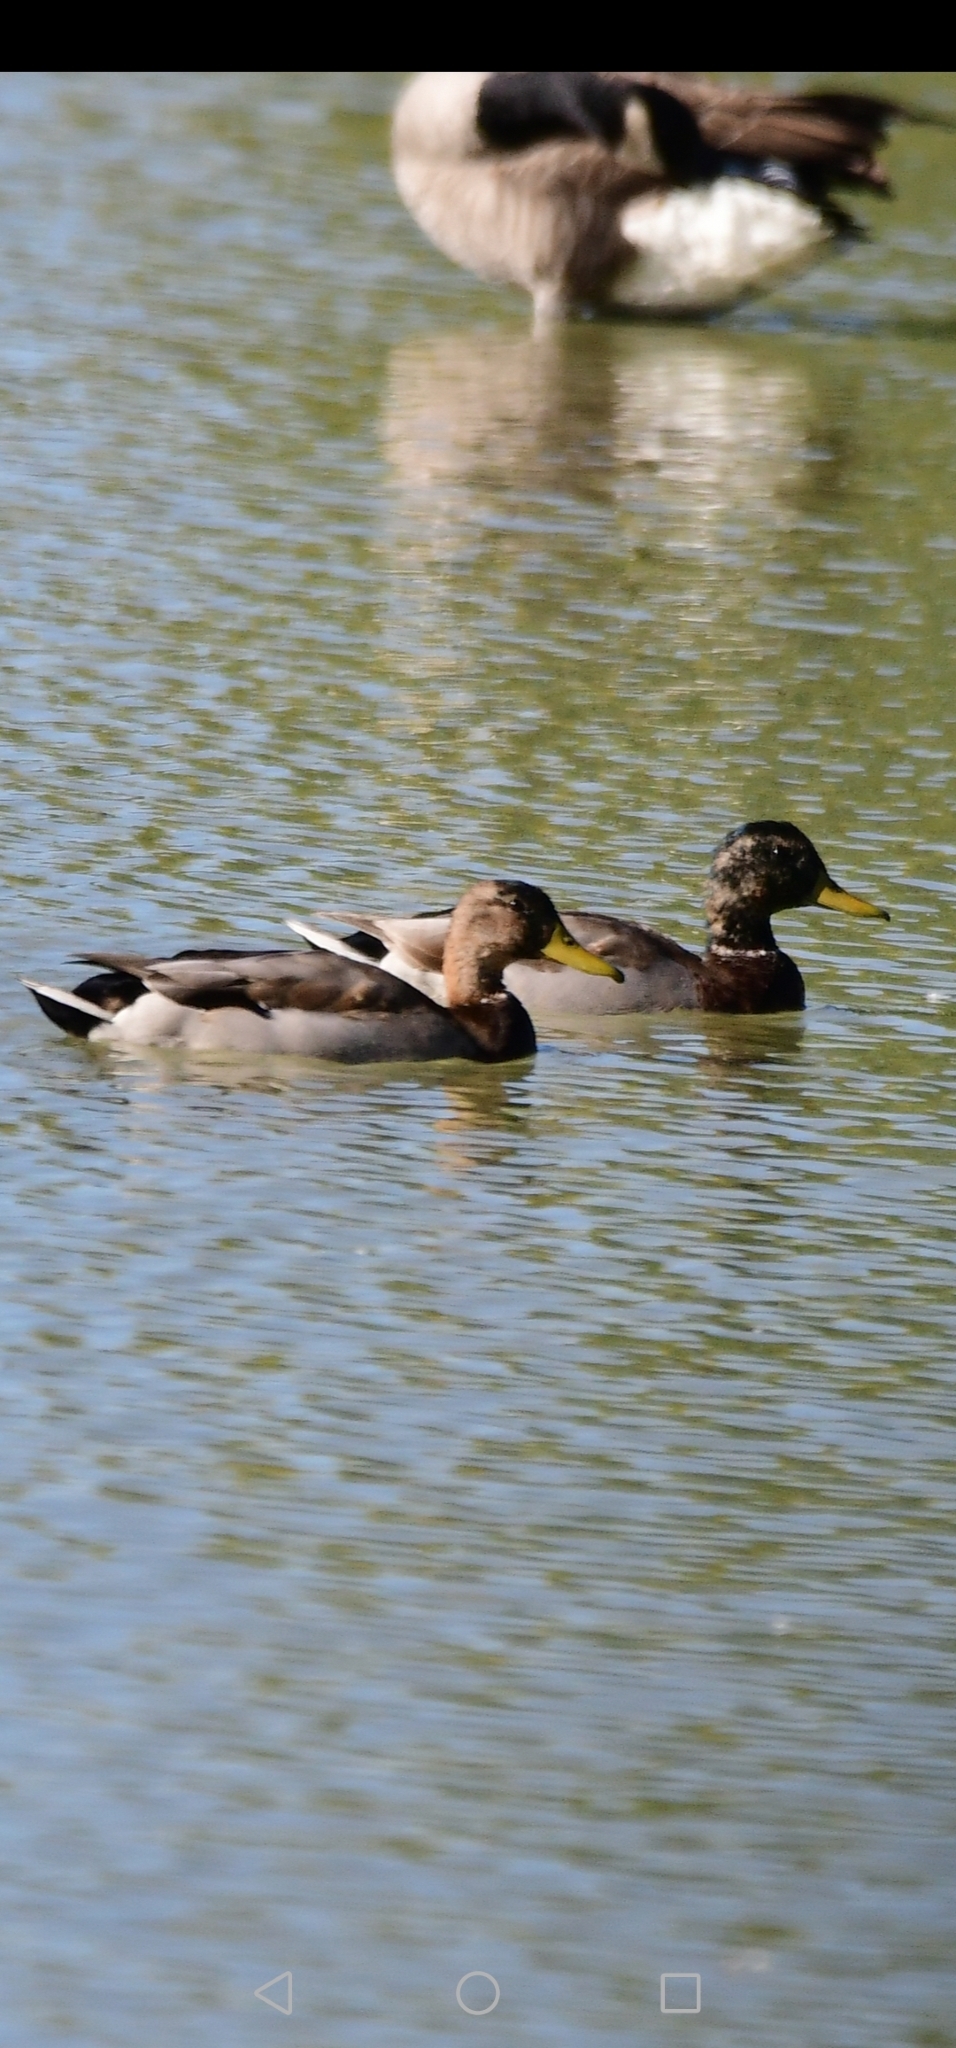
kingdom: Animalia
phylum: Chordata
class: Aves
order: Anseriformes
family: Anatidae
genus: Anas
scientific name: Anas platyrhynchos
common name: Mallard
